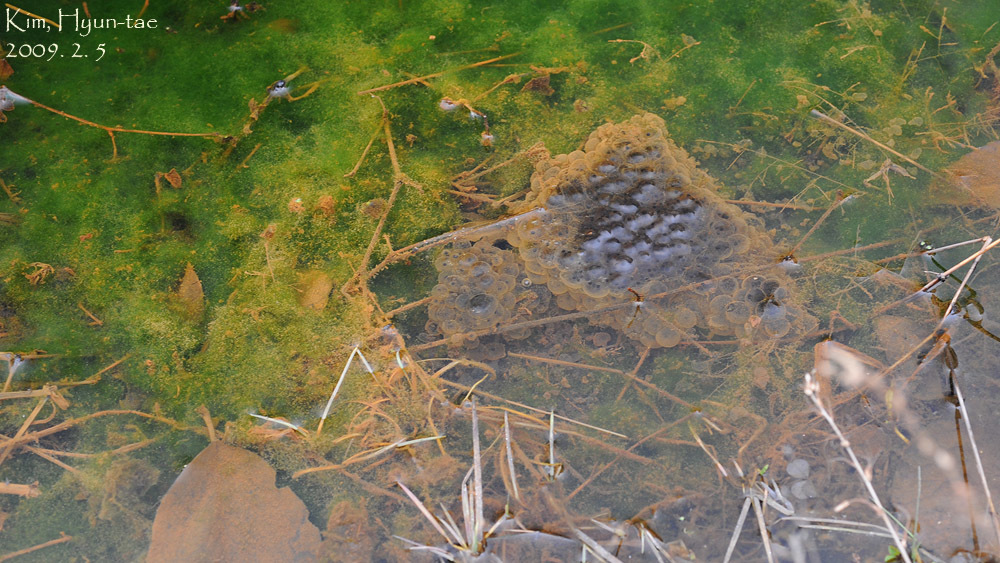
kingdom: Animalia
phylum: Chordata
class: Amphibia
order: Anura
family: Ranidae
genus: Rana
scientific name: Rana uenoi
